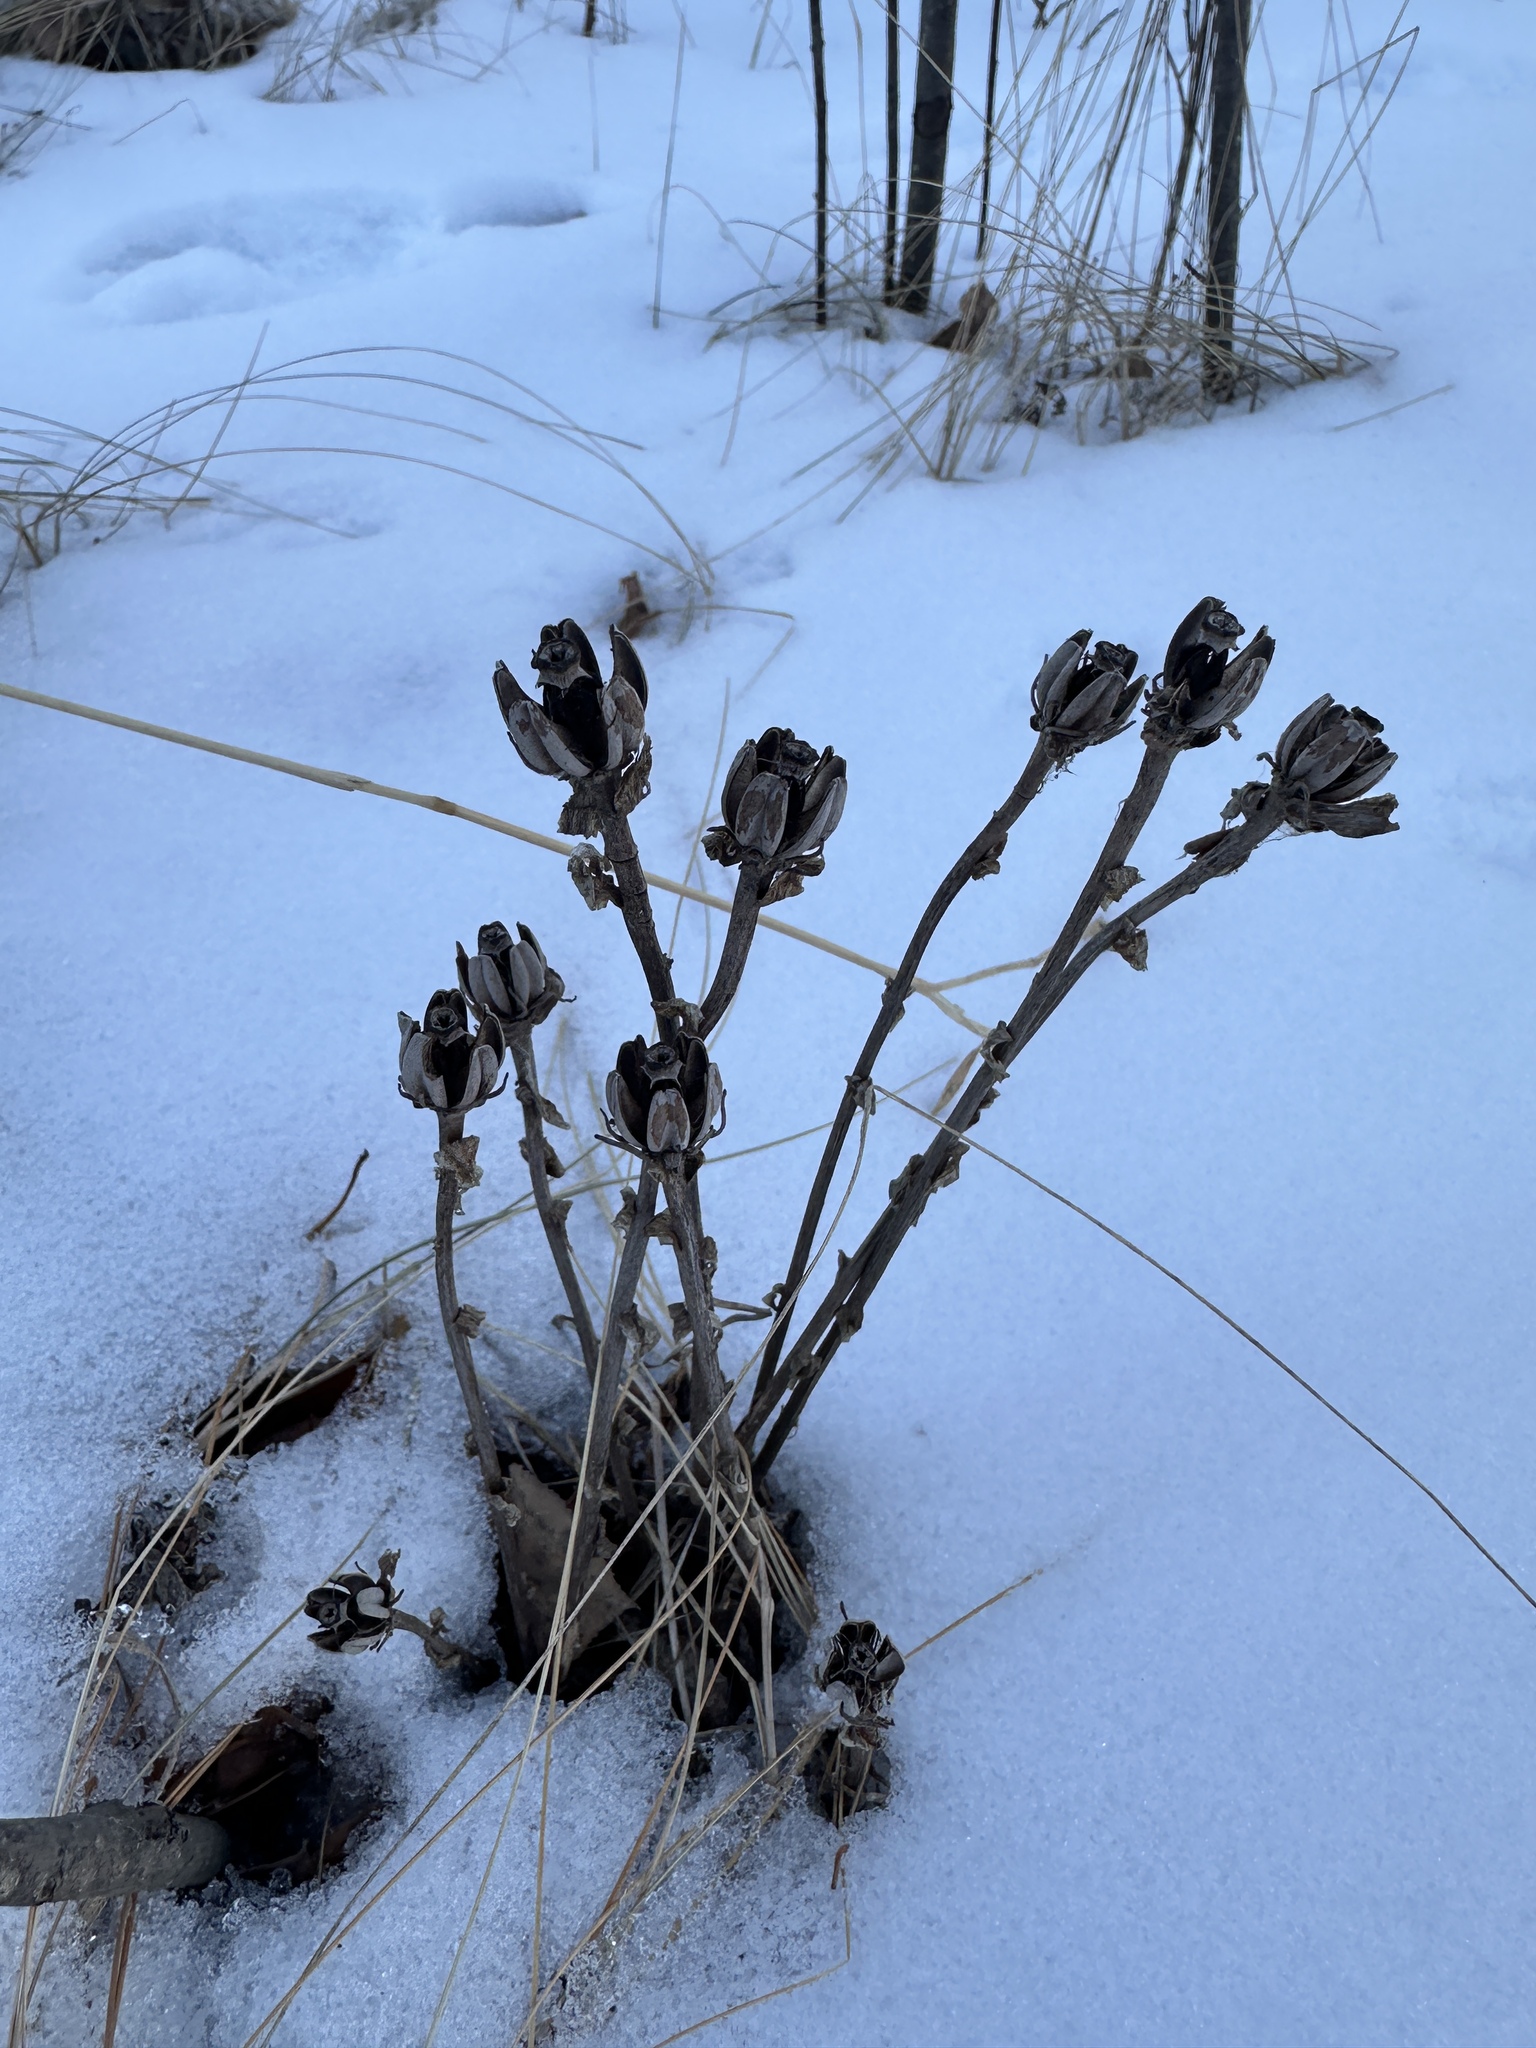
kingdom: Plantae
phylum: Tracheophyta
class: Magnoliopsida
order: Ericales
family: Ericaceae
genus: Monotropa
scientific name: Monotropa uniflora
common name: Convulsion root
